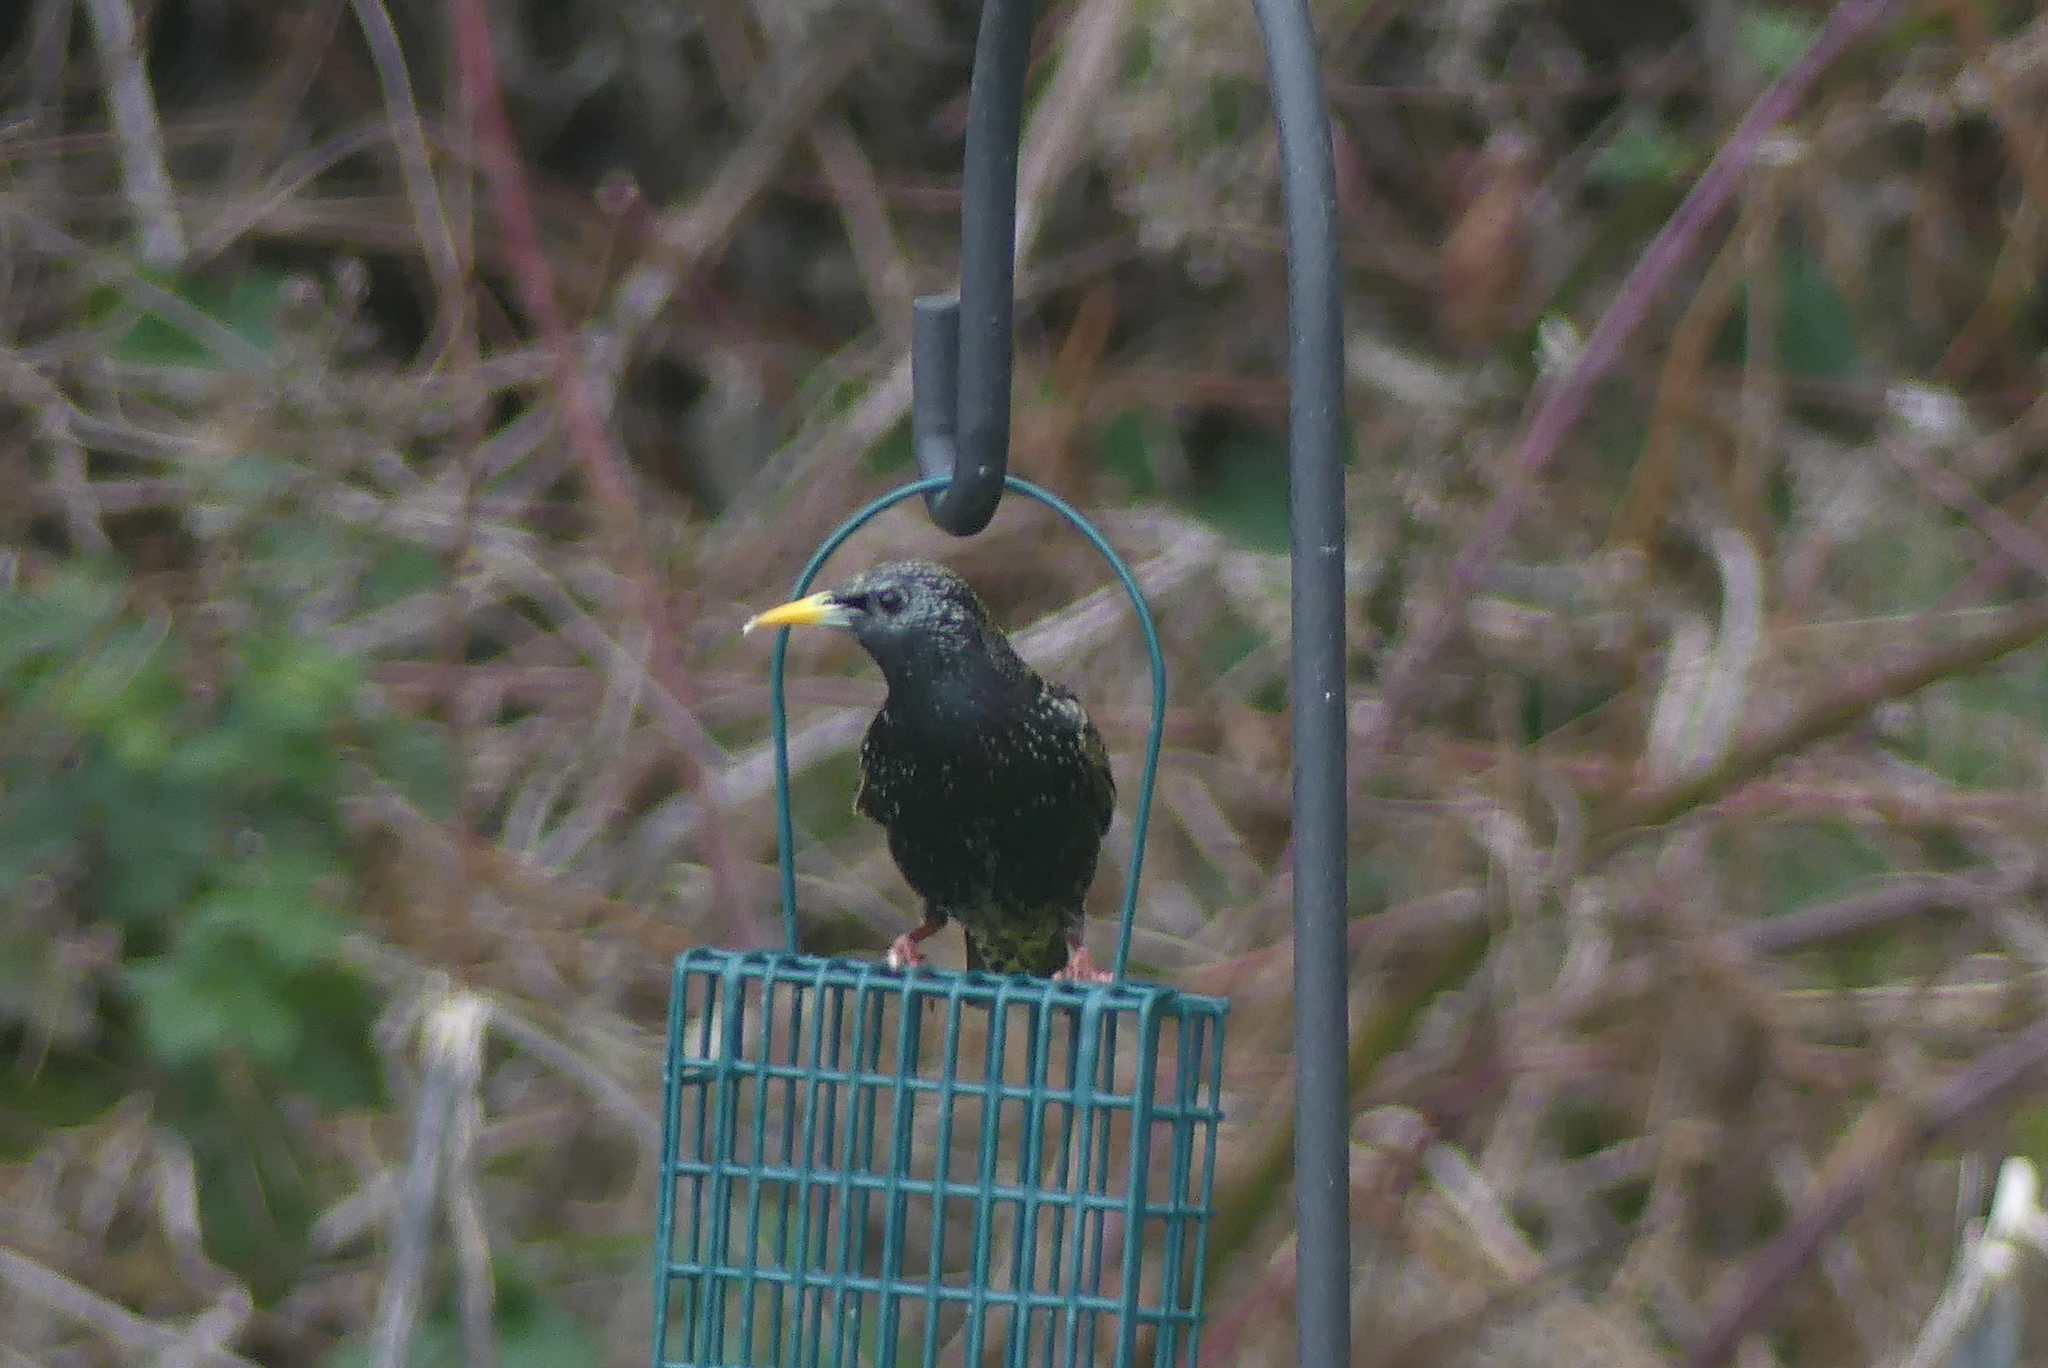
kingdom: Animalia
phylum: Chordata
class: Aves
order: Passeriformes
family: Sturnidae
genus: Sturnus
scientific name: Sturnus vulgaris
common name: Common starling
